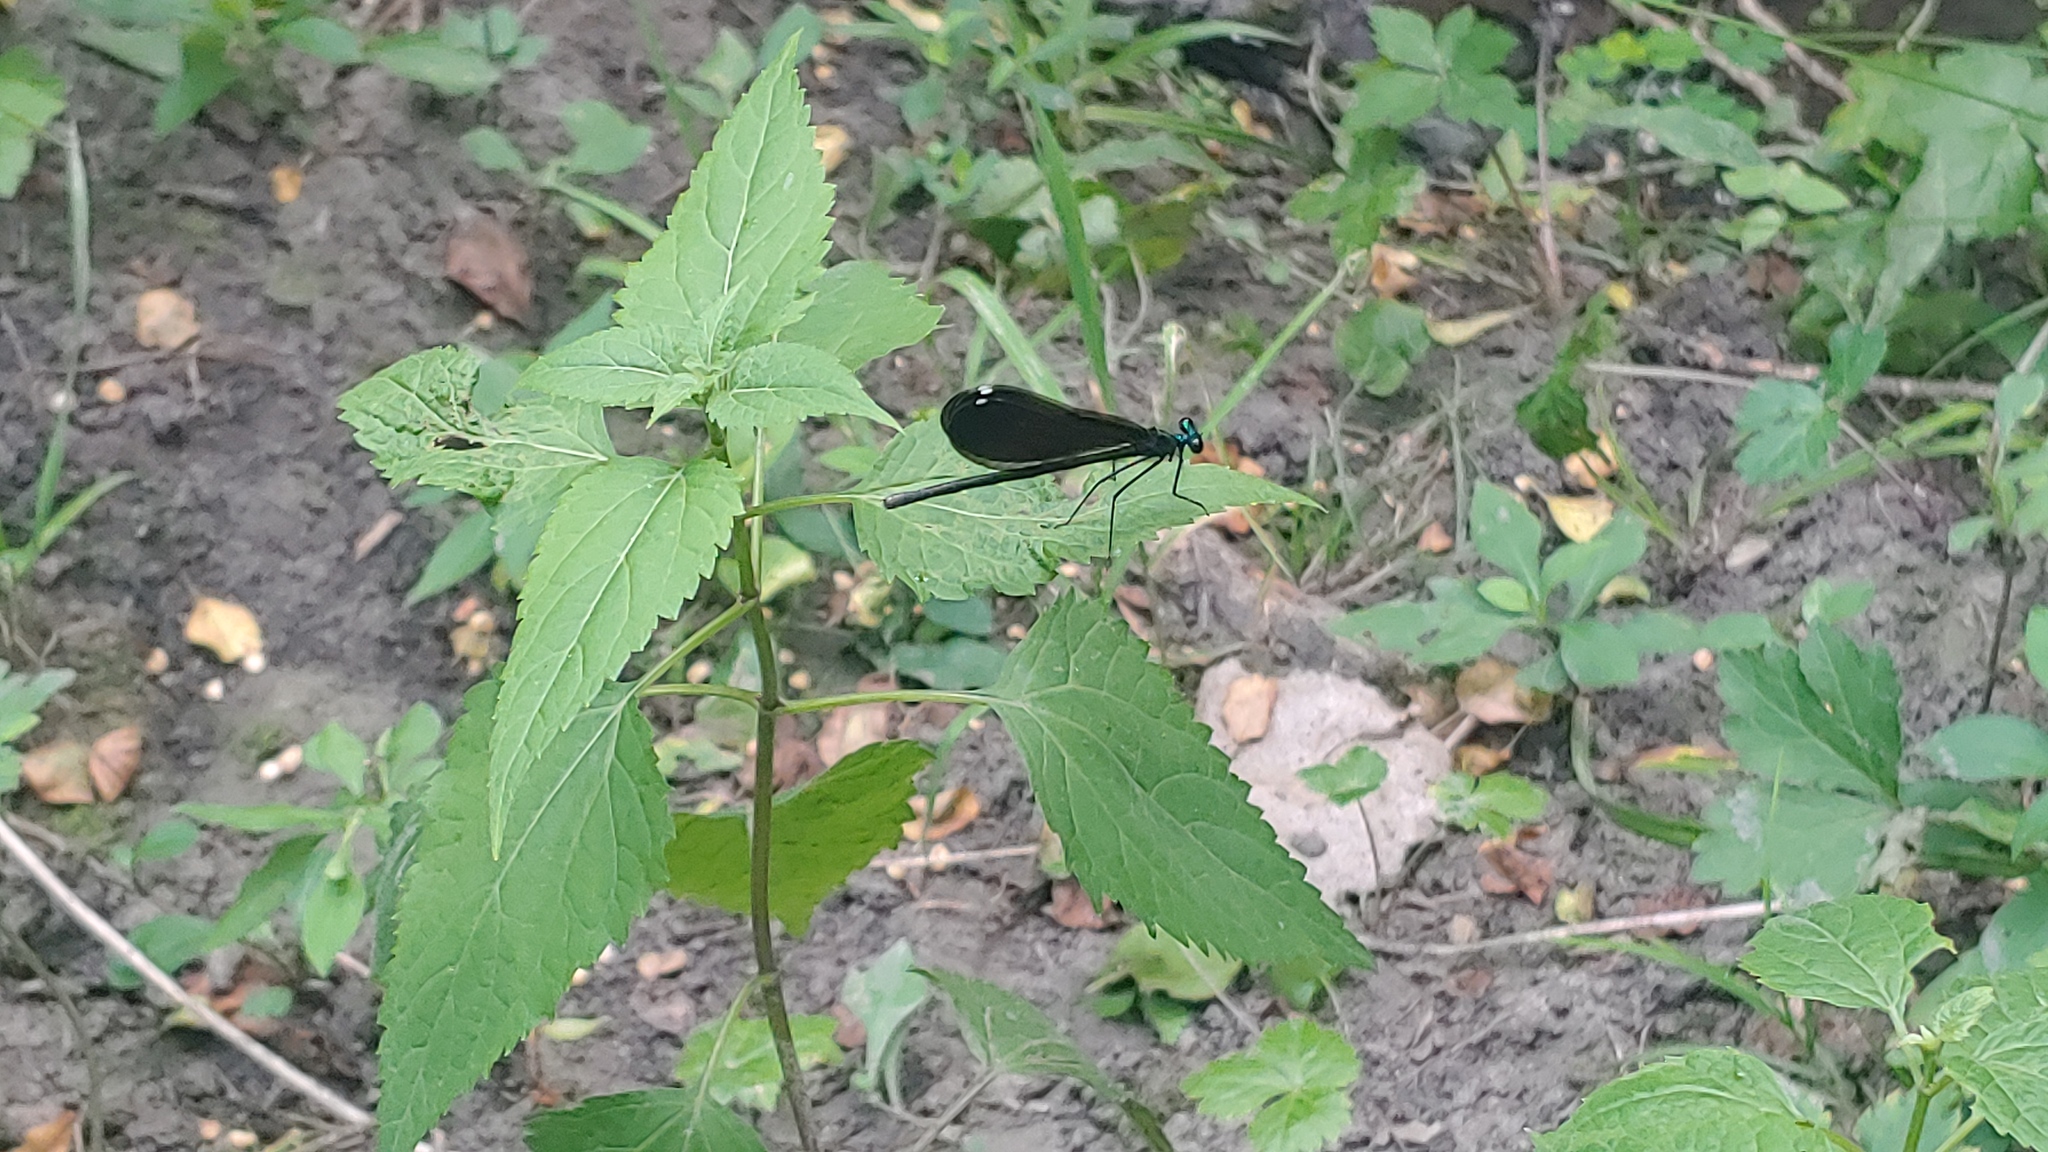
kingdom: Animalia
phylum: Arthropoda
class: Insecta
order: Odonata
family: Calopterygidae
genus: Calopteryx
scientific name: Calopteryx maculata
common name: Ebony jewelwing
